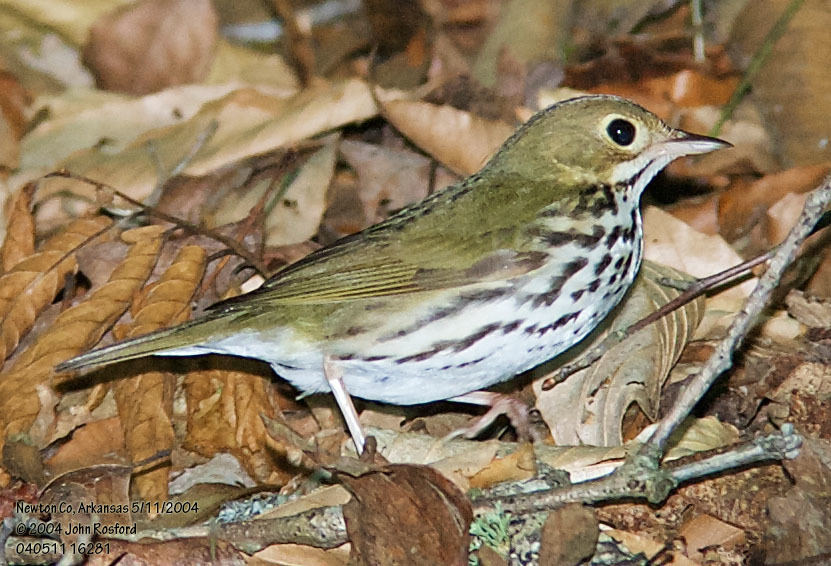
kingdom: Animalia
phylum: Chordata
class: Aves
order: Passeriformes
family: Parulidae
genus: Seiurus
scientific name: Seiurus aurocapilla
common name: Ovenbird
